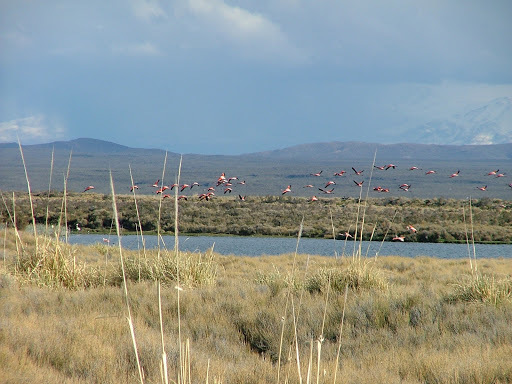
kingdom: Animalia
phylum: Chordata
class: Aves
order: Phoenicopteriformes
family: Phoenicopteridae
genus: Phoenicopterus
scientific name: Phoenicopterus chilensis
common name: Chilean flamingo
